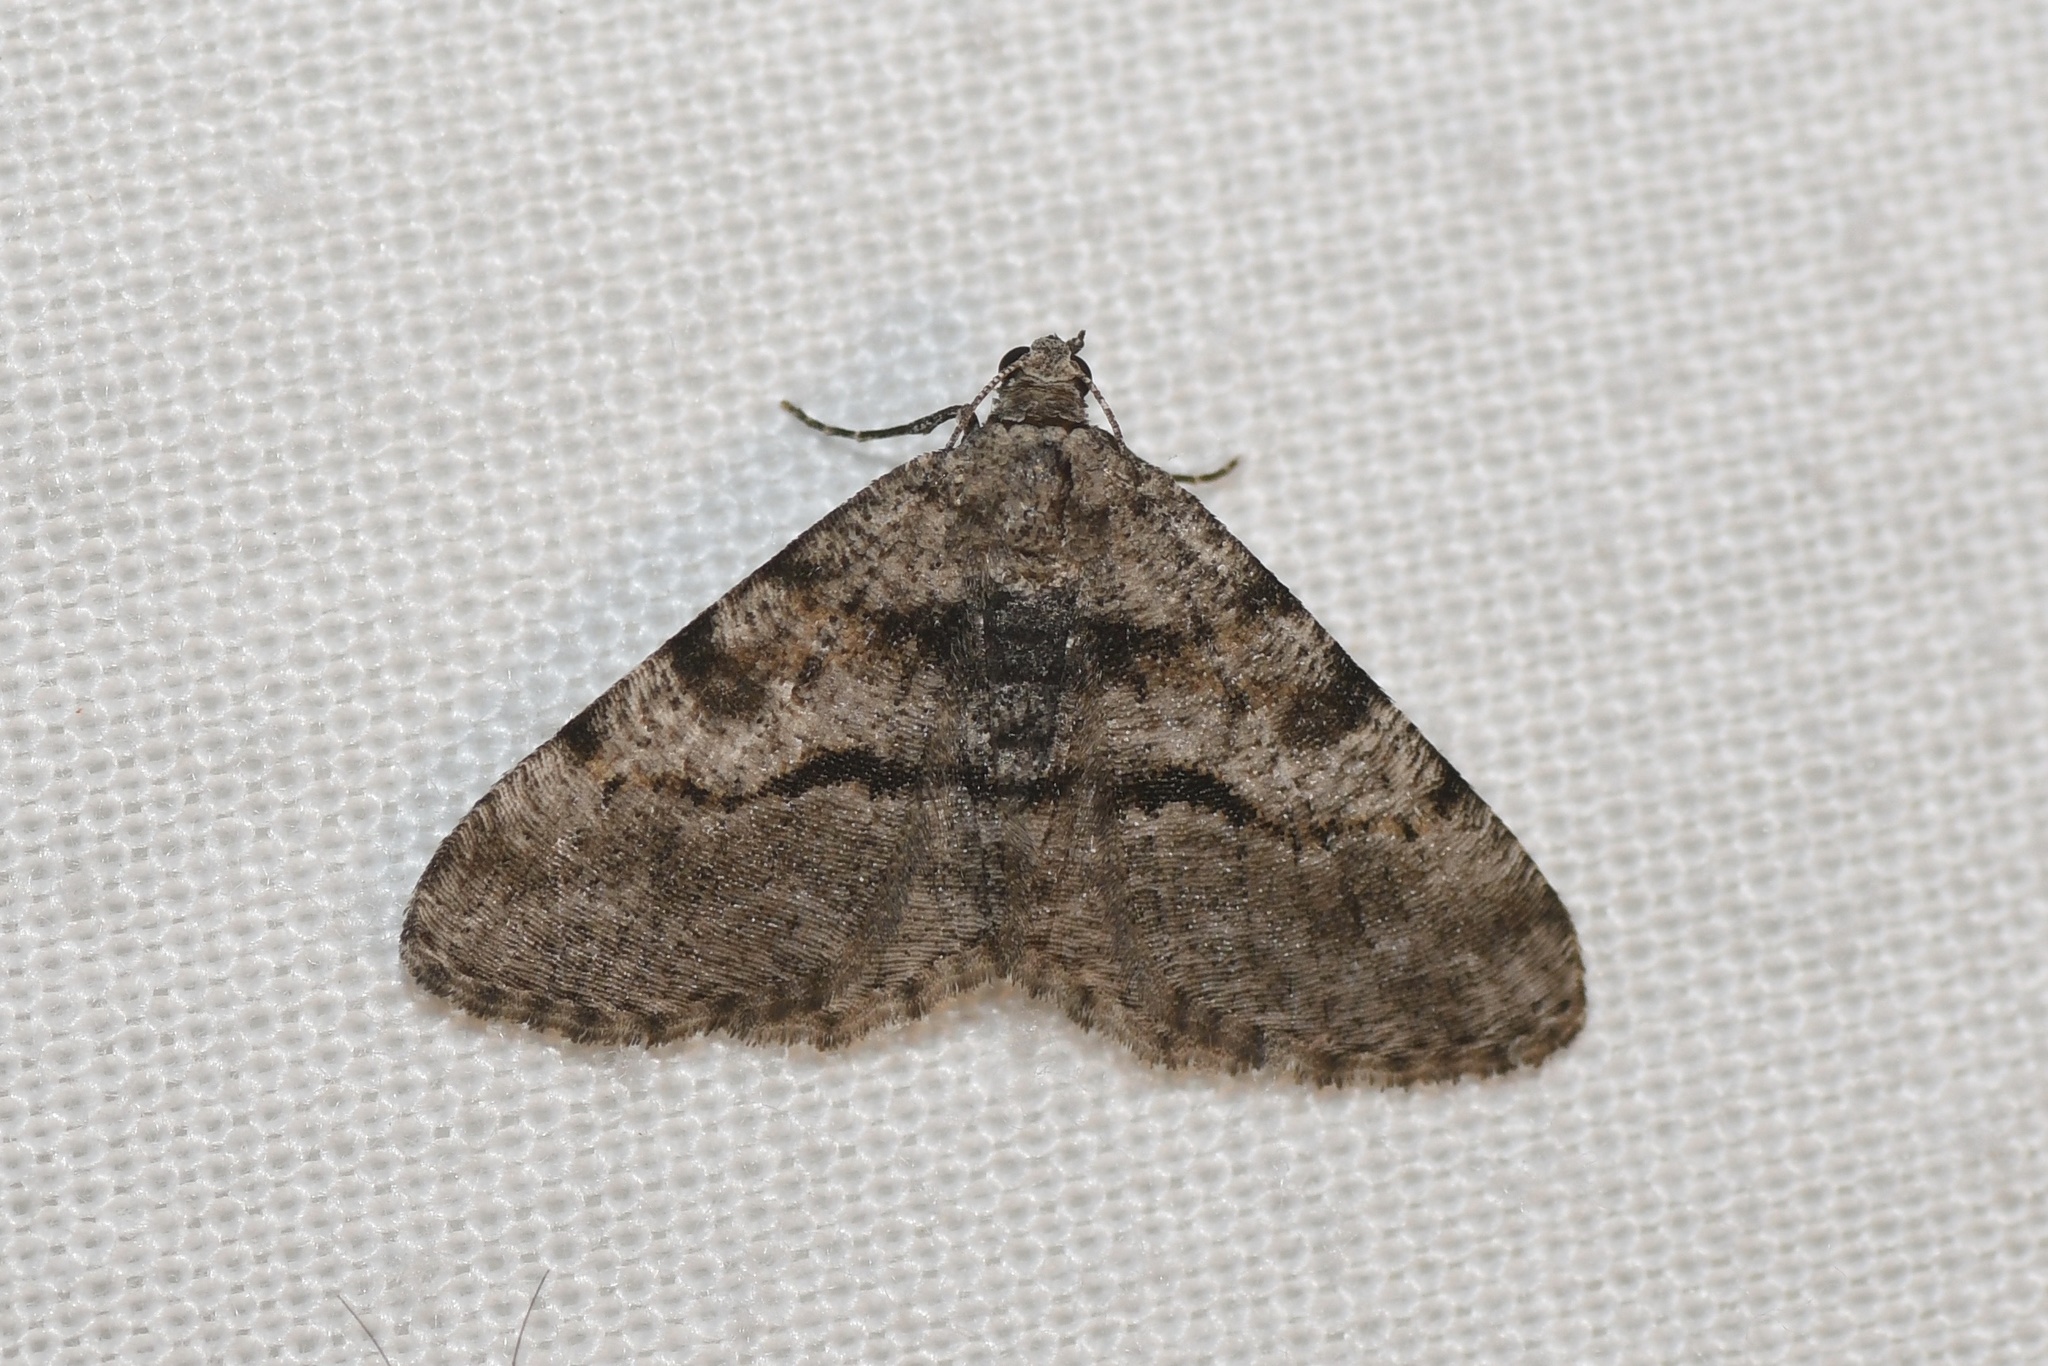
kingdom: Animalia
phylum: Arthropoda
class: Insecta
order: Lepidoptera
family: Geometridae
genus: Digrammia
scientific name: Digrammia gnophosaria
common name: Hollow-spotted angle
